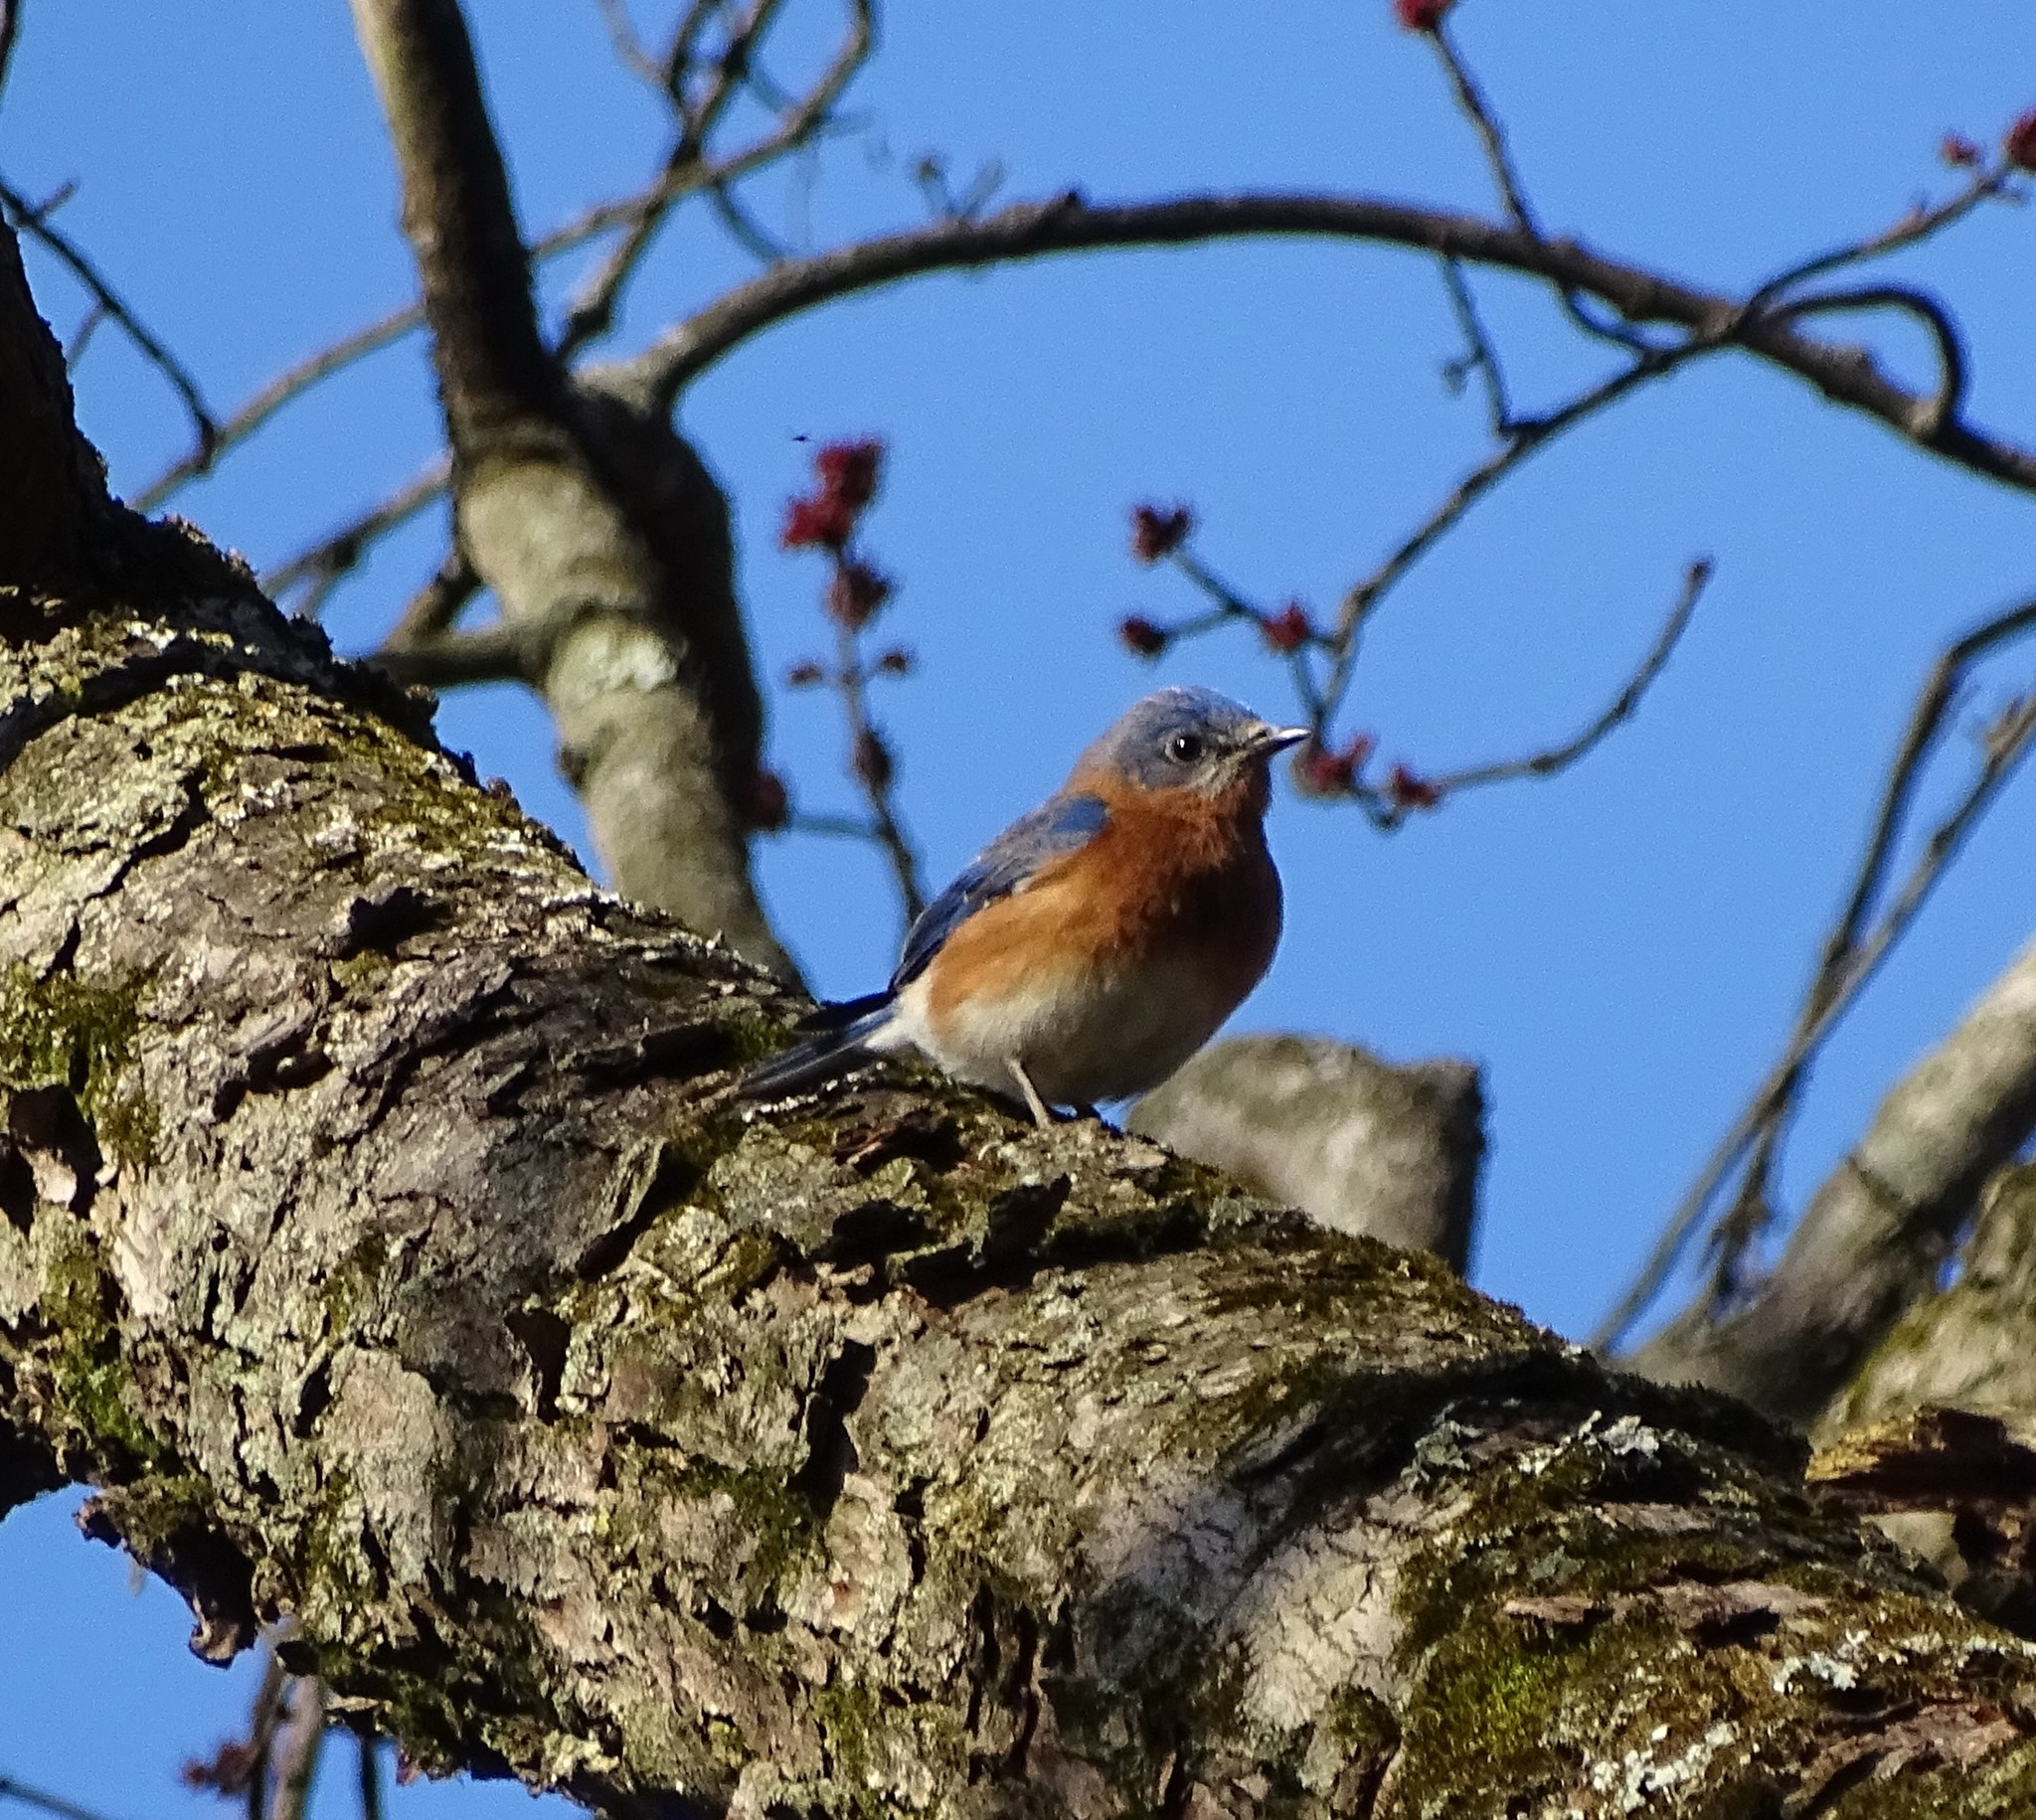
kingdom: Animalia
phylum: Chordata
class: Aves
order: Passeriformes
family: Turdidae
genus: Sialia
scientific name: Sialia sialis
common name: Eastern bluebird
